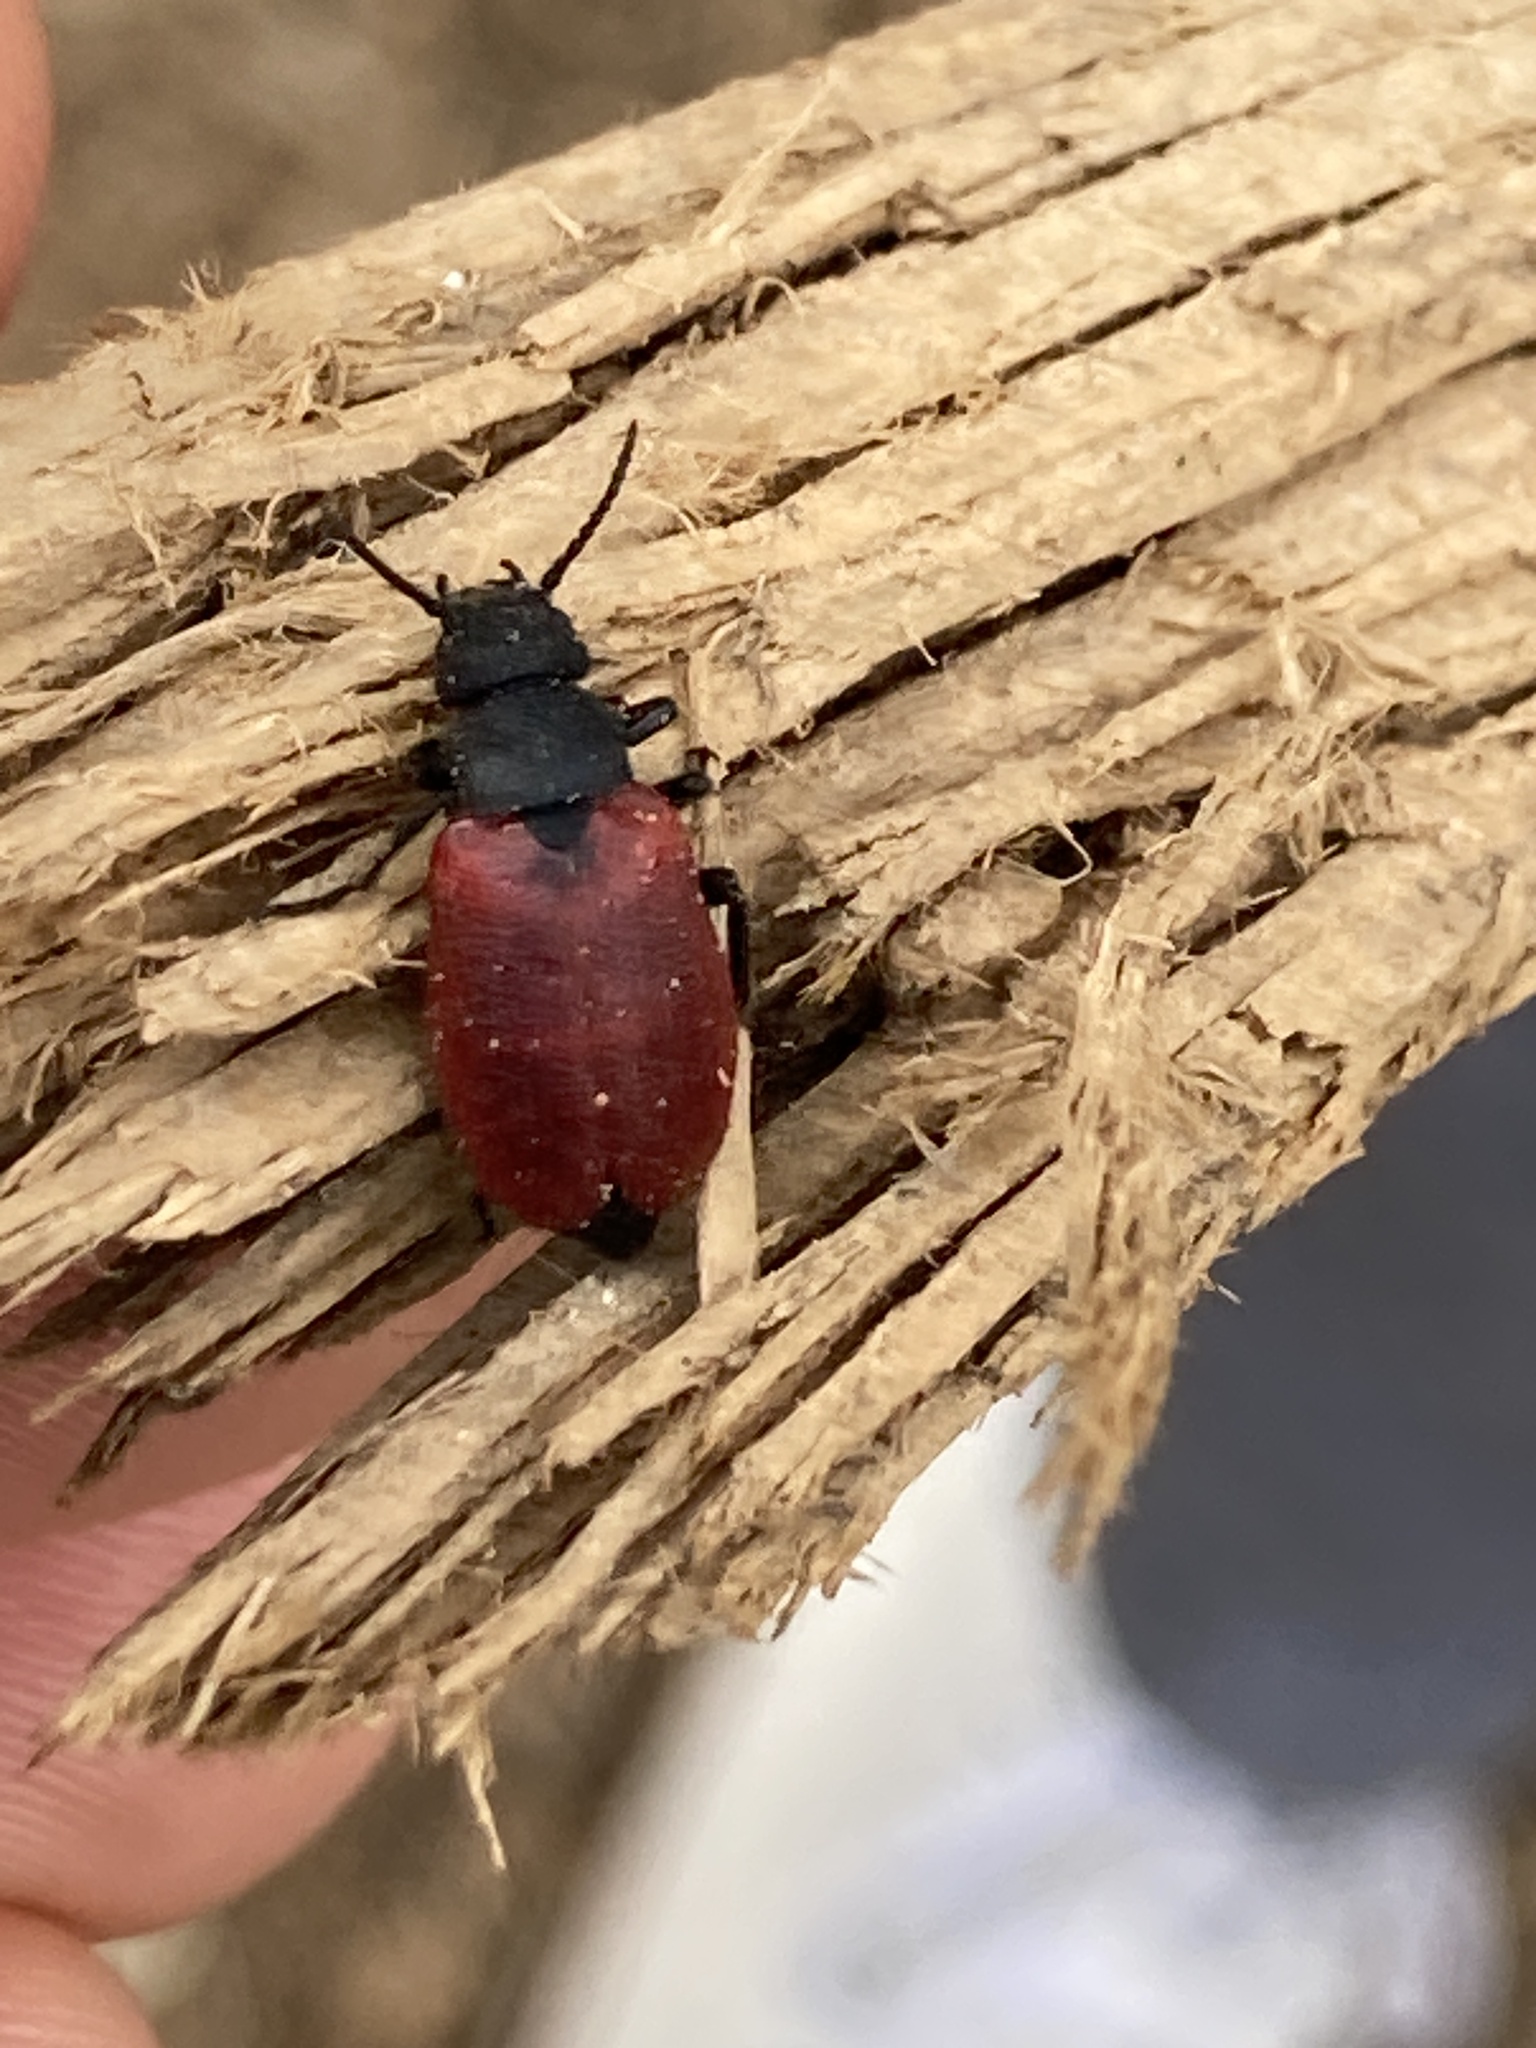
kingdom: Animalia
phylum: Arthropoda
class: Insecta
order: Coleoptera
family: Meloidae
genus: Tricrania
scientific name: Tricrania sanguinipennis
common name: Blood-winged blister beetle
